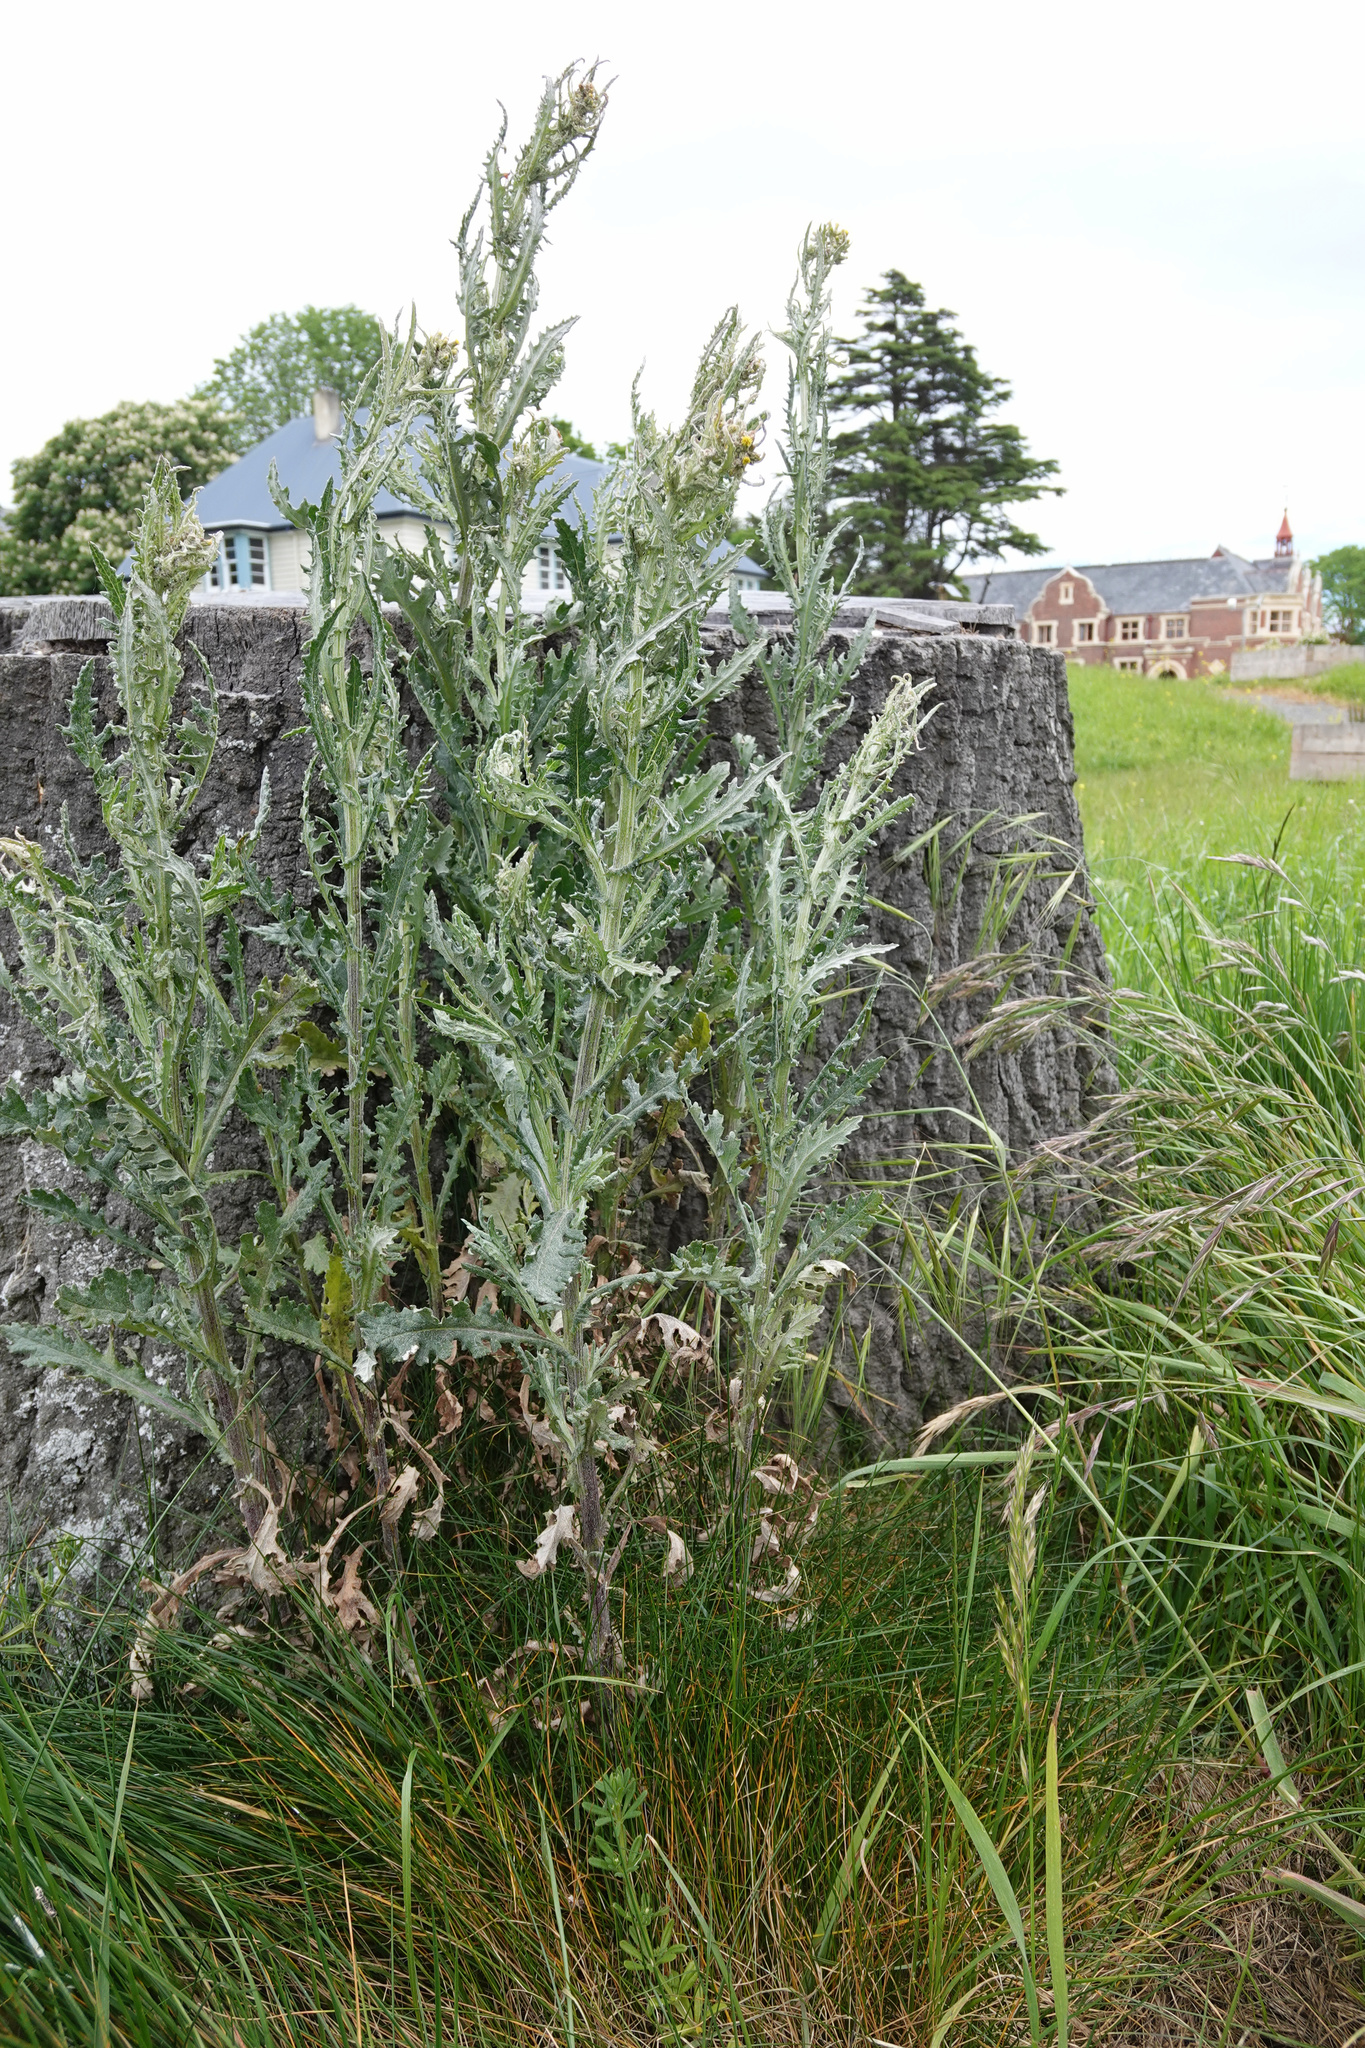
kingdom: Plantae
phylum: Tracheophyta
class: Magnoliopsida
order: Asterales
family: Asteraceae
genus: Senecio
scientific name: Senecio glomeratus
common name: Cutleaf burnweed
